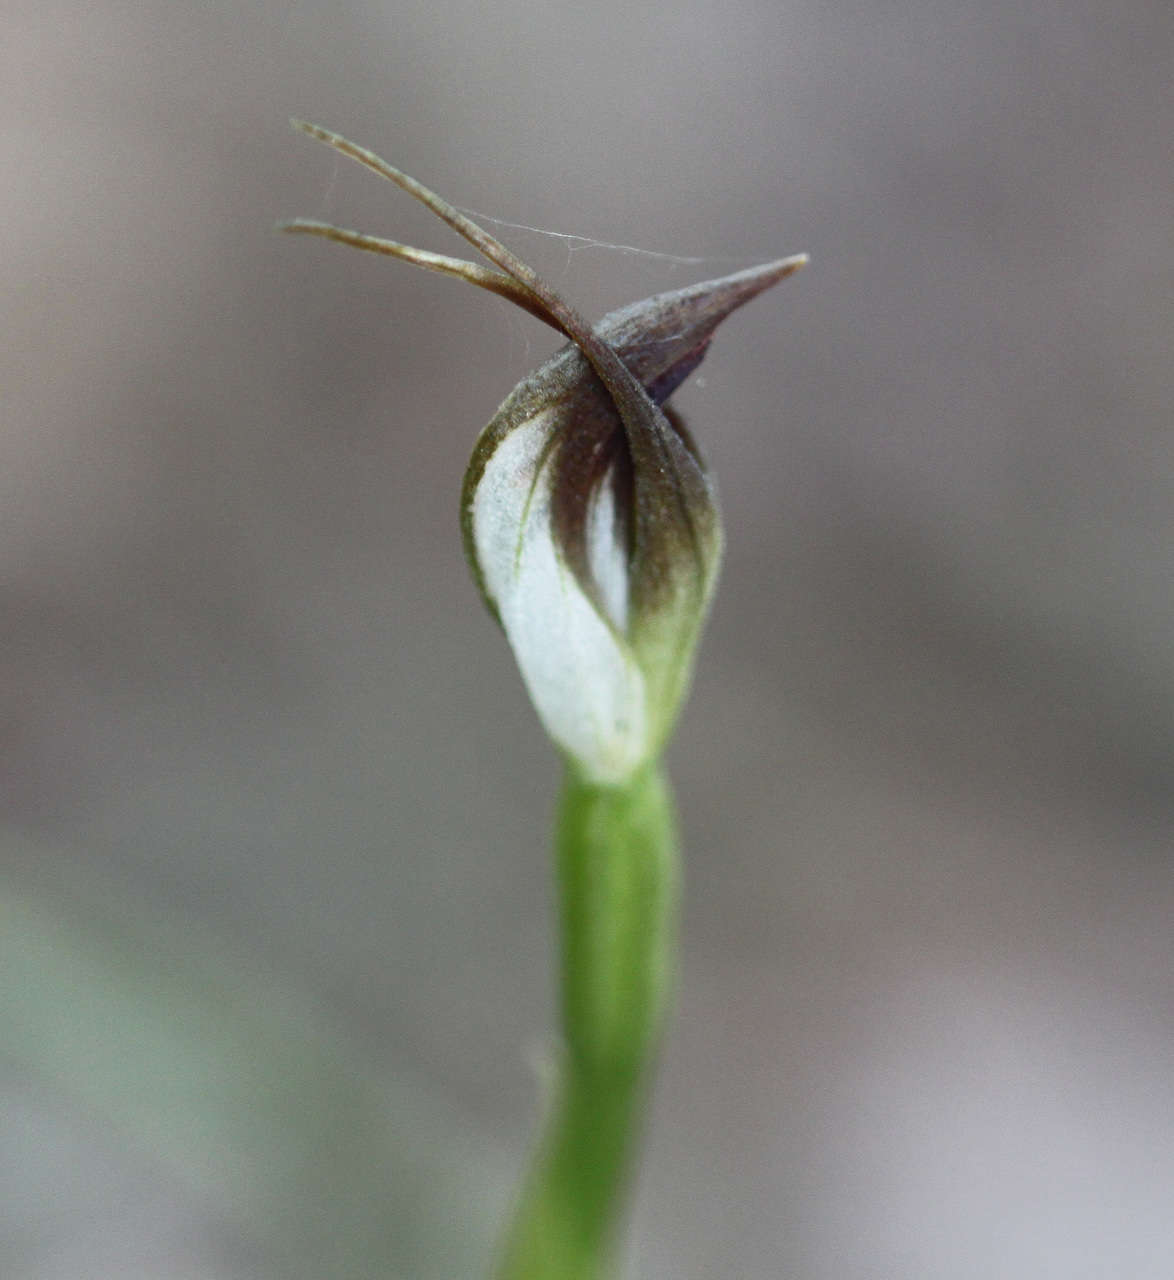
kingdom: Plantae
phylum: Tracheophyta
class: Liliopsida
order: Asparagales
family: Orchidaceae
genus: Pterostylis
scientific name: Pterostylis pedunculata
